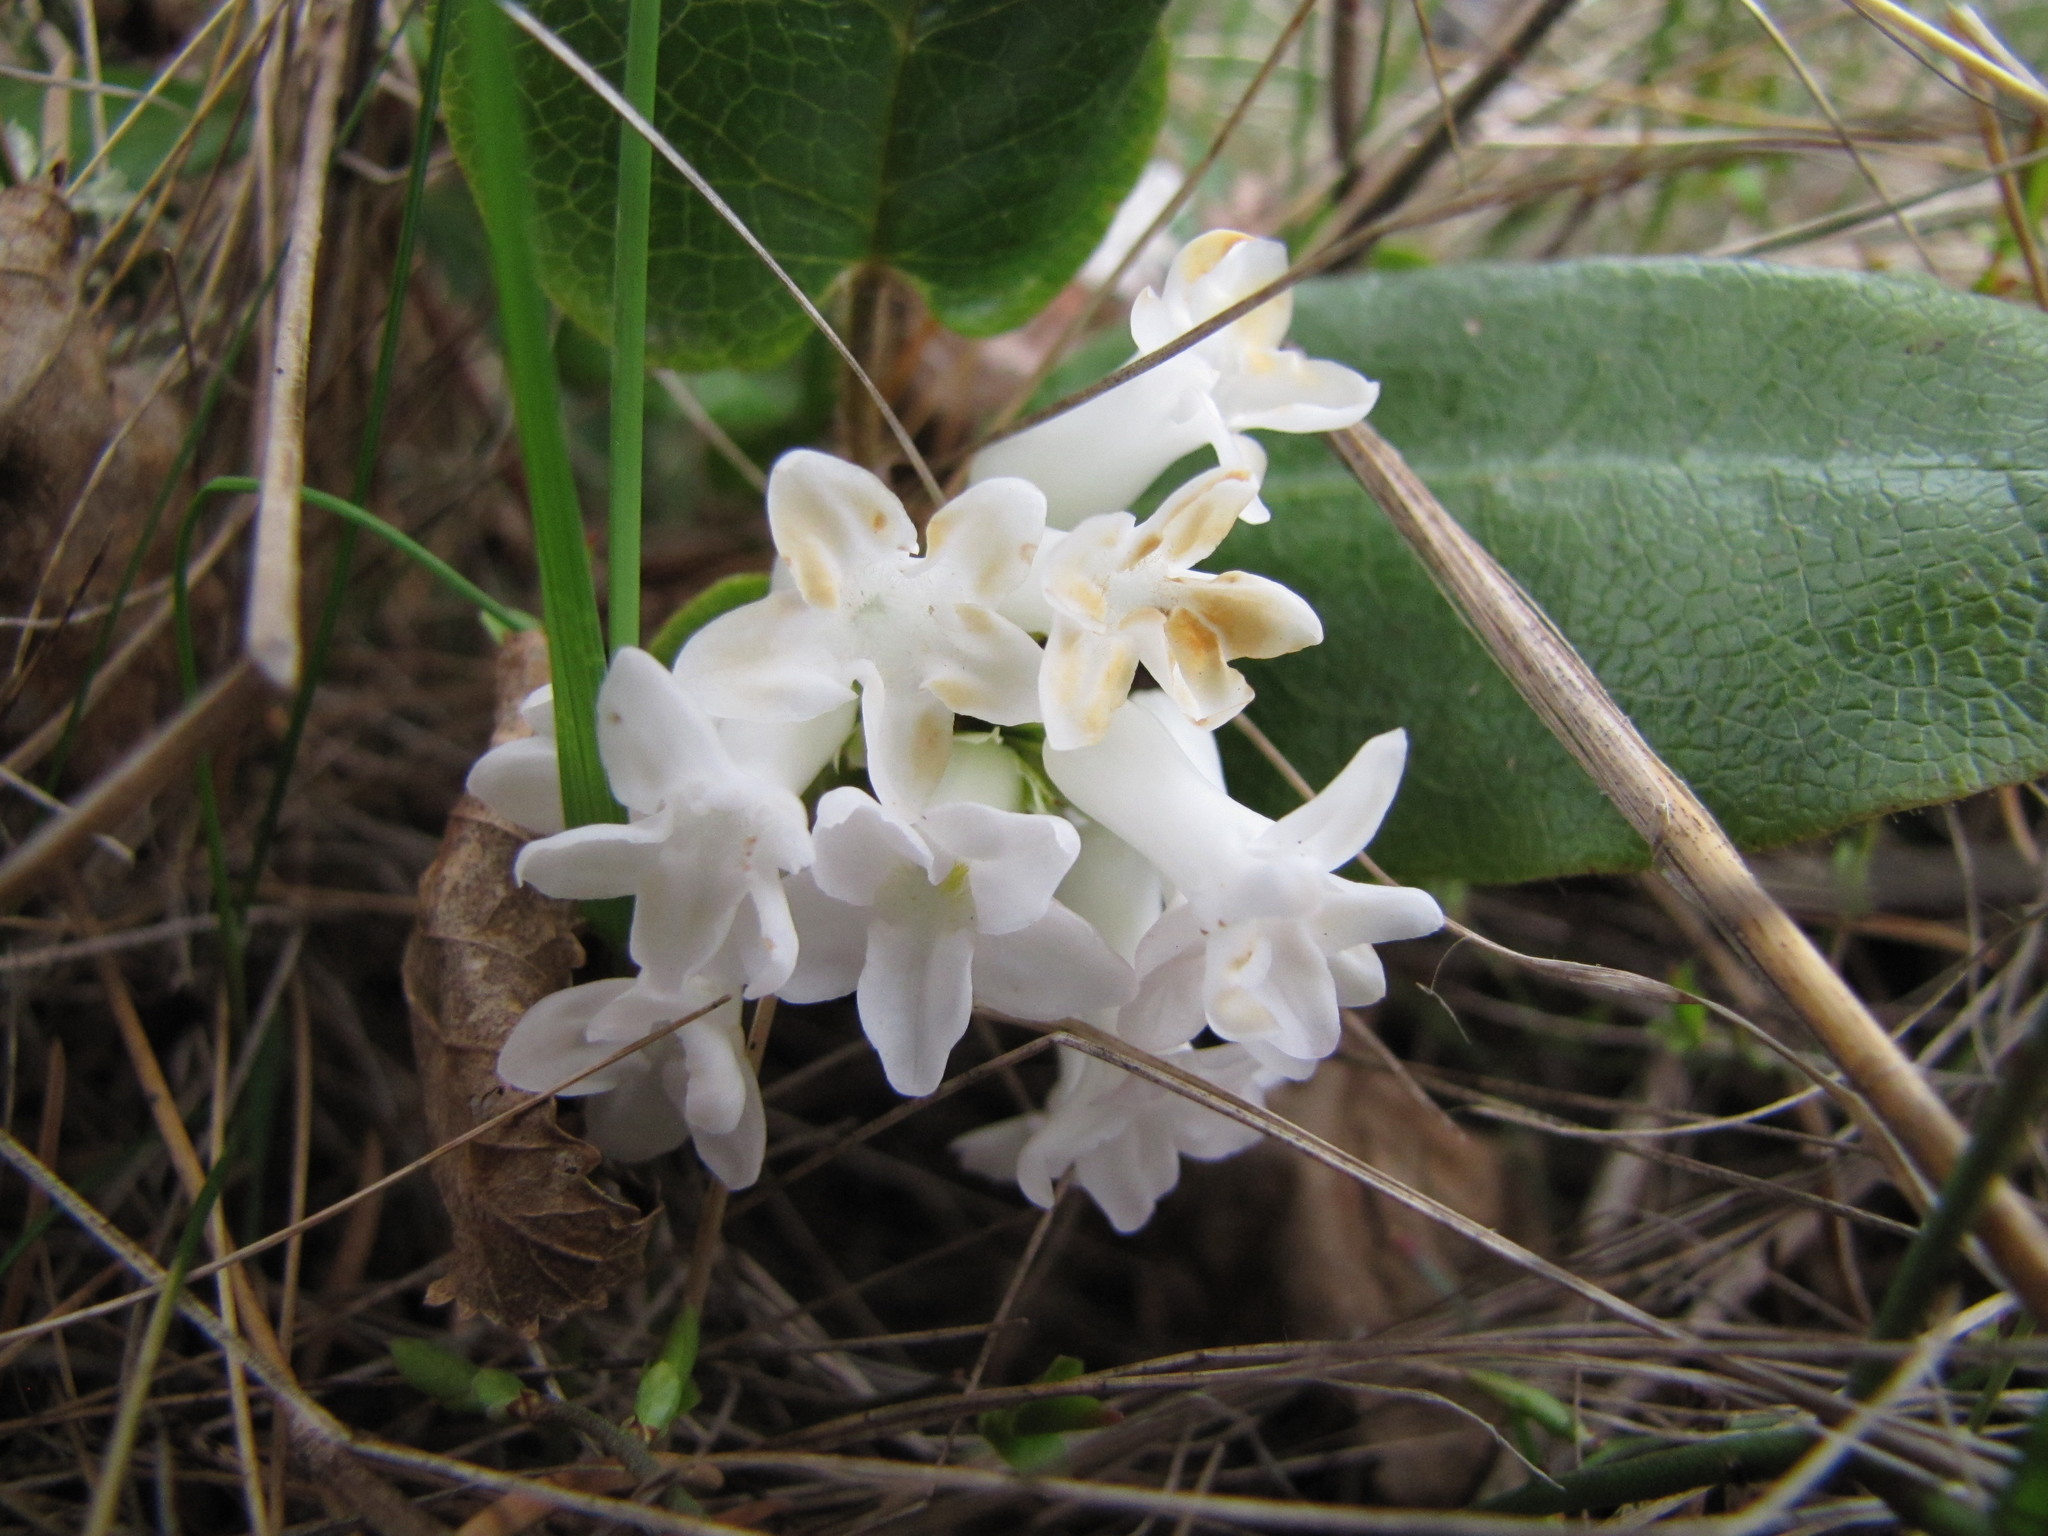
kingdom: Plantae
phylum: Tracheophyta
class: Magnoliopsida
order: Ericales
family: Ericaceae
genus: Epigaea
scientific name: Epigaea repens
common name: Gravelroot
